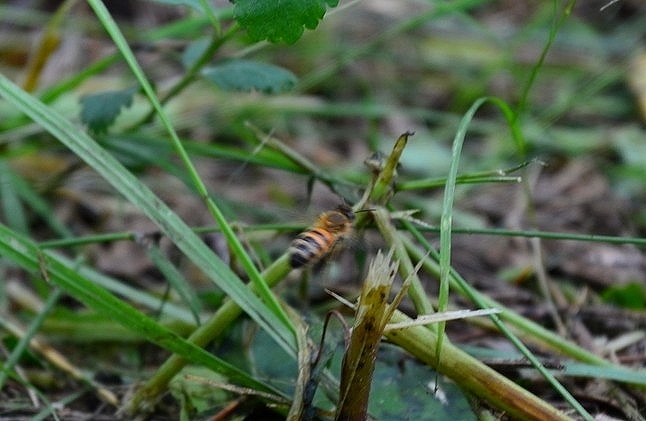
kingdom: Animalia
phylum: Arthropoda
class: Insecta
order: Hymenoptera
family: Apidae
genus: Apis
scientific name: Apis mellifera
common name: Honey bee
